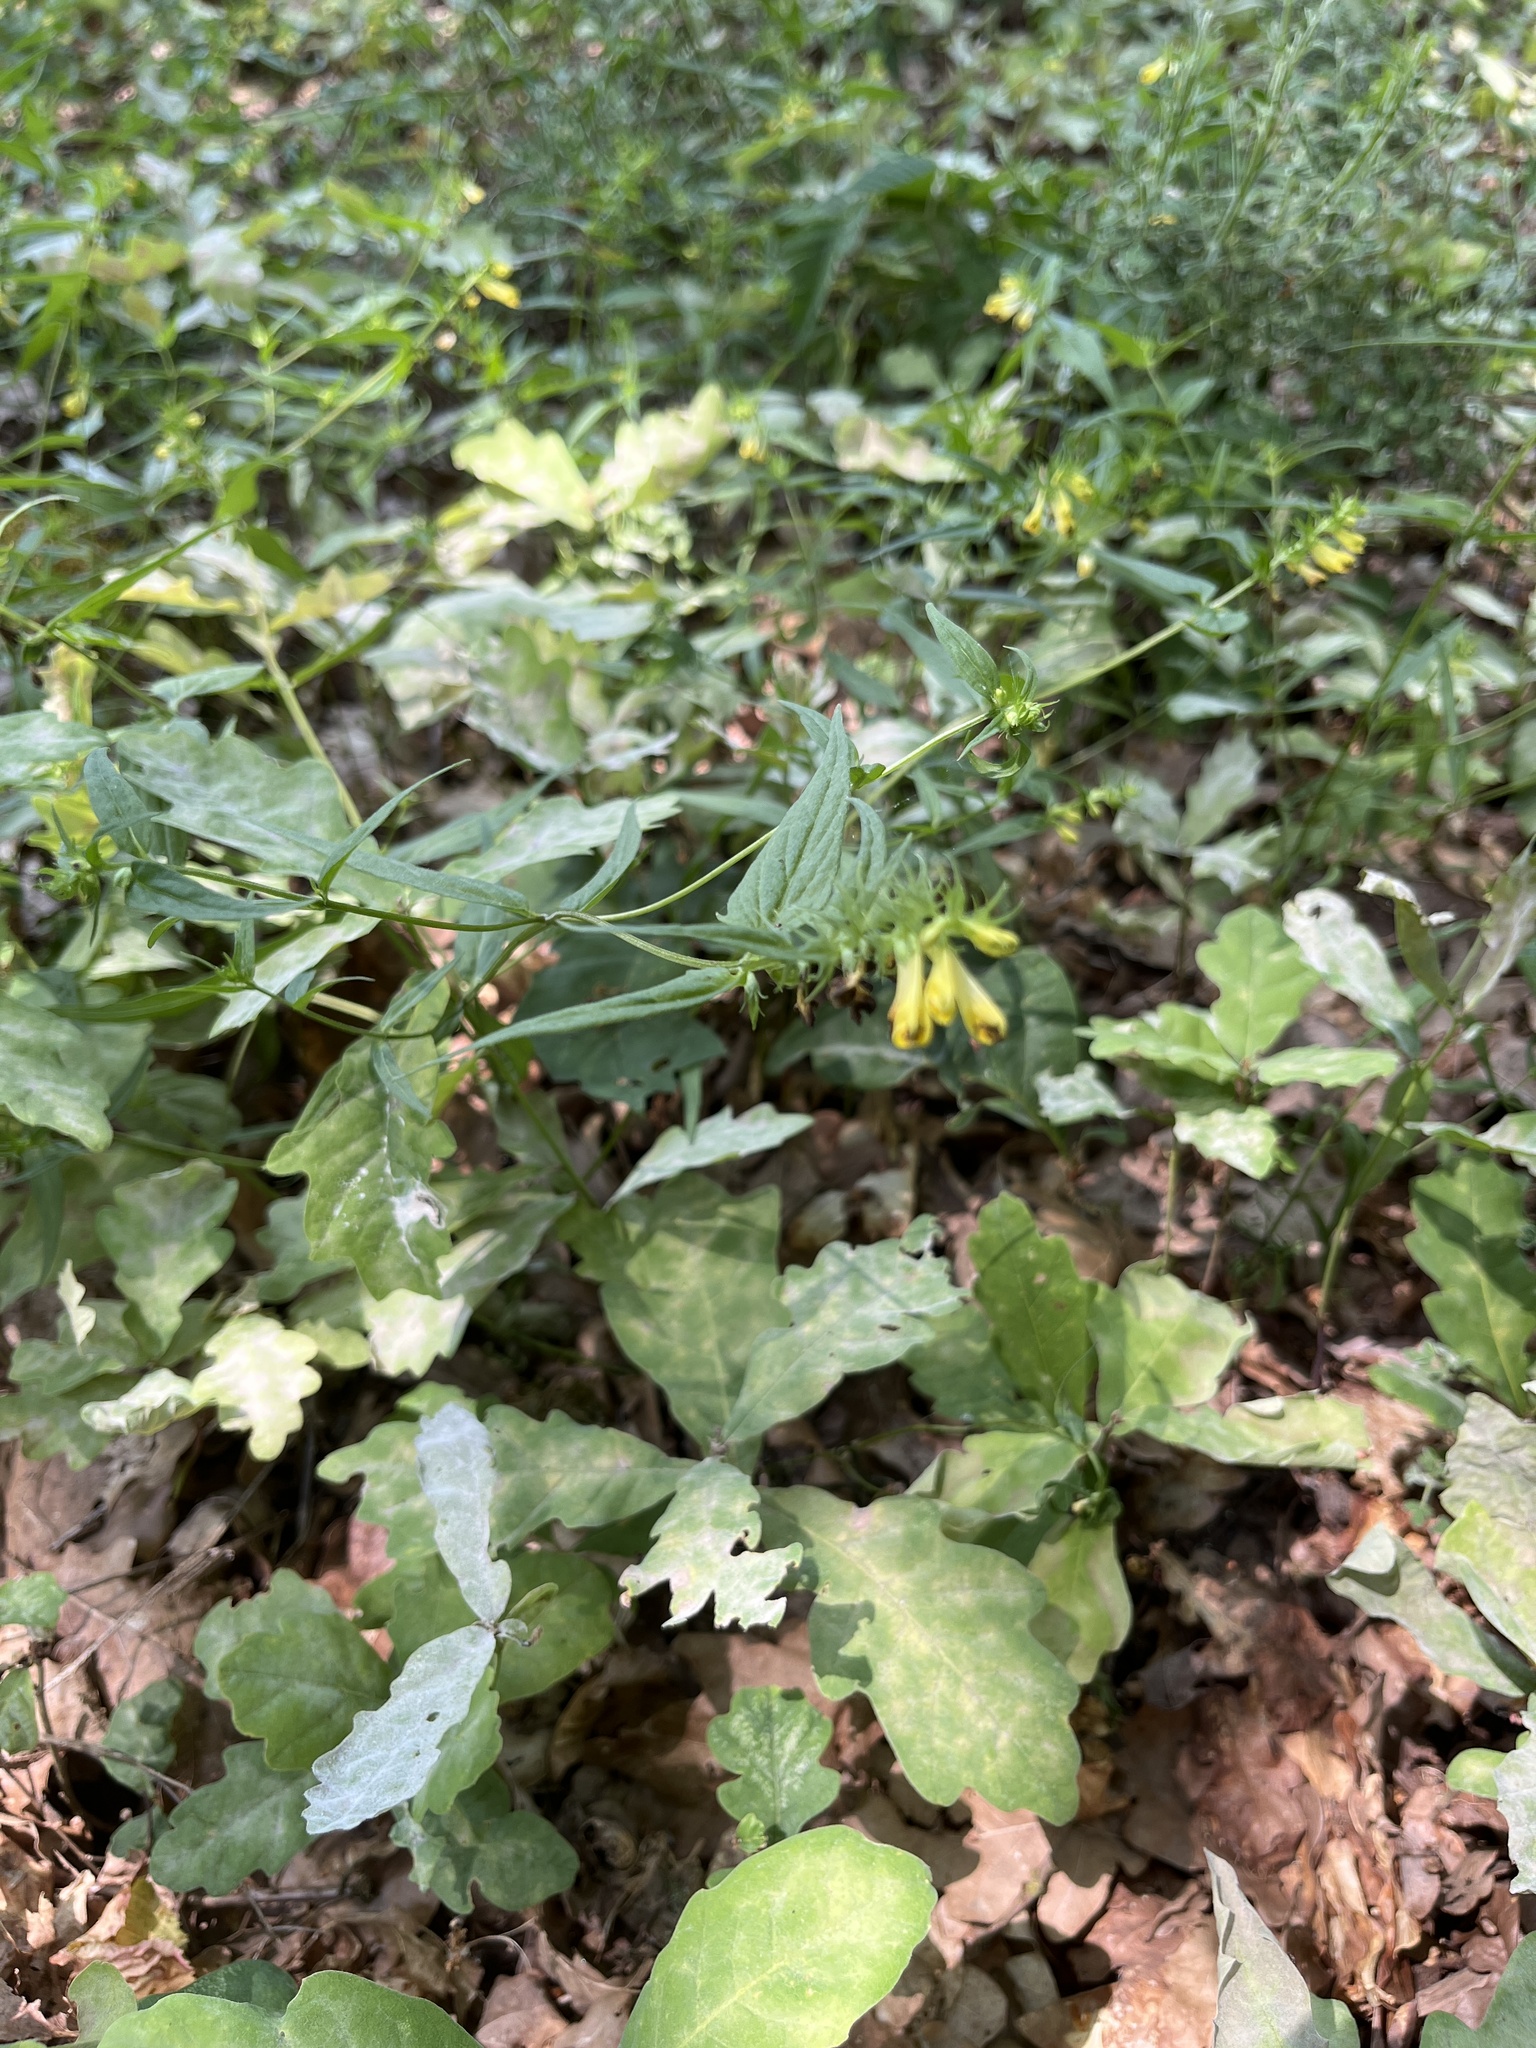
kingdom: Plantae
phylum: Tracheophyta
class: Magnoliopsida
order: Lamiales
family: Orobanchaceae
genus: Melampyrum
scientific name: Melampyrum pratense
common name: Common cow-wheat
